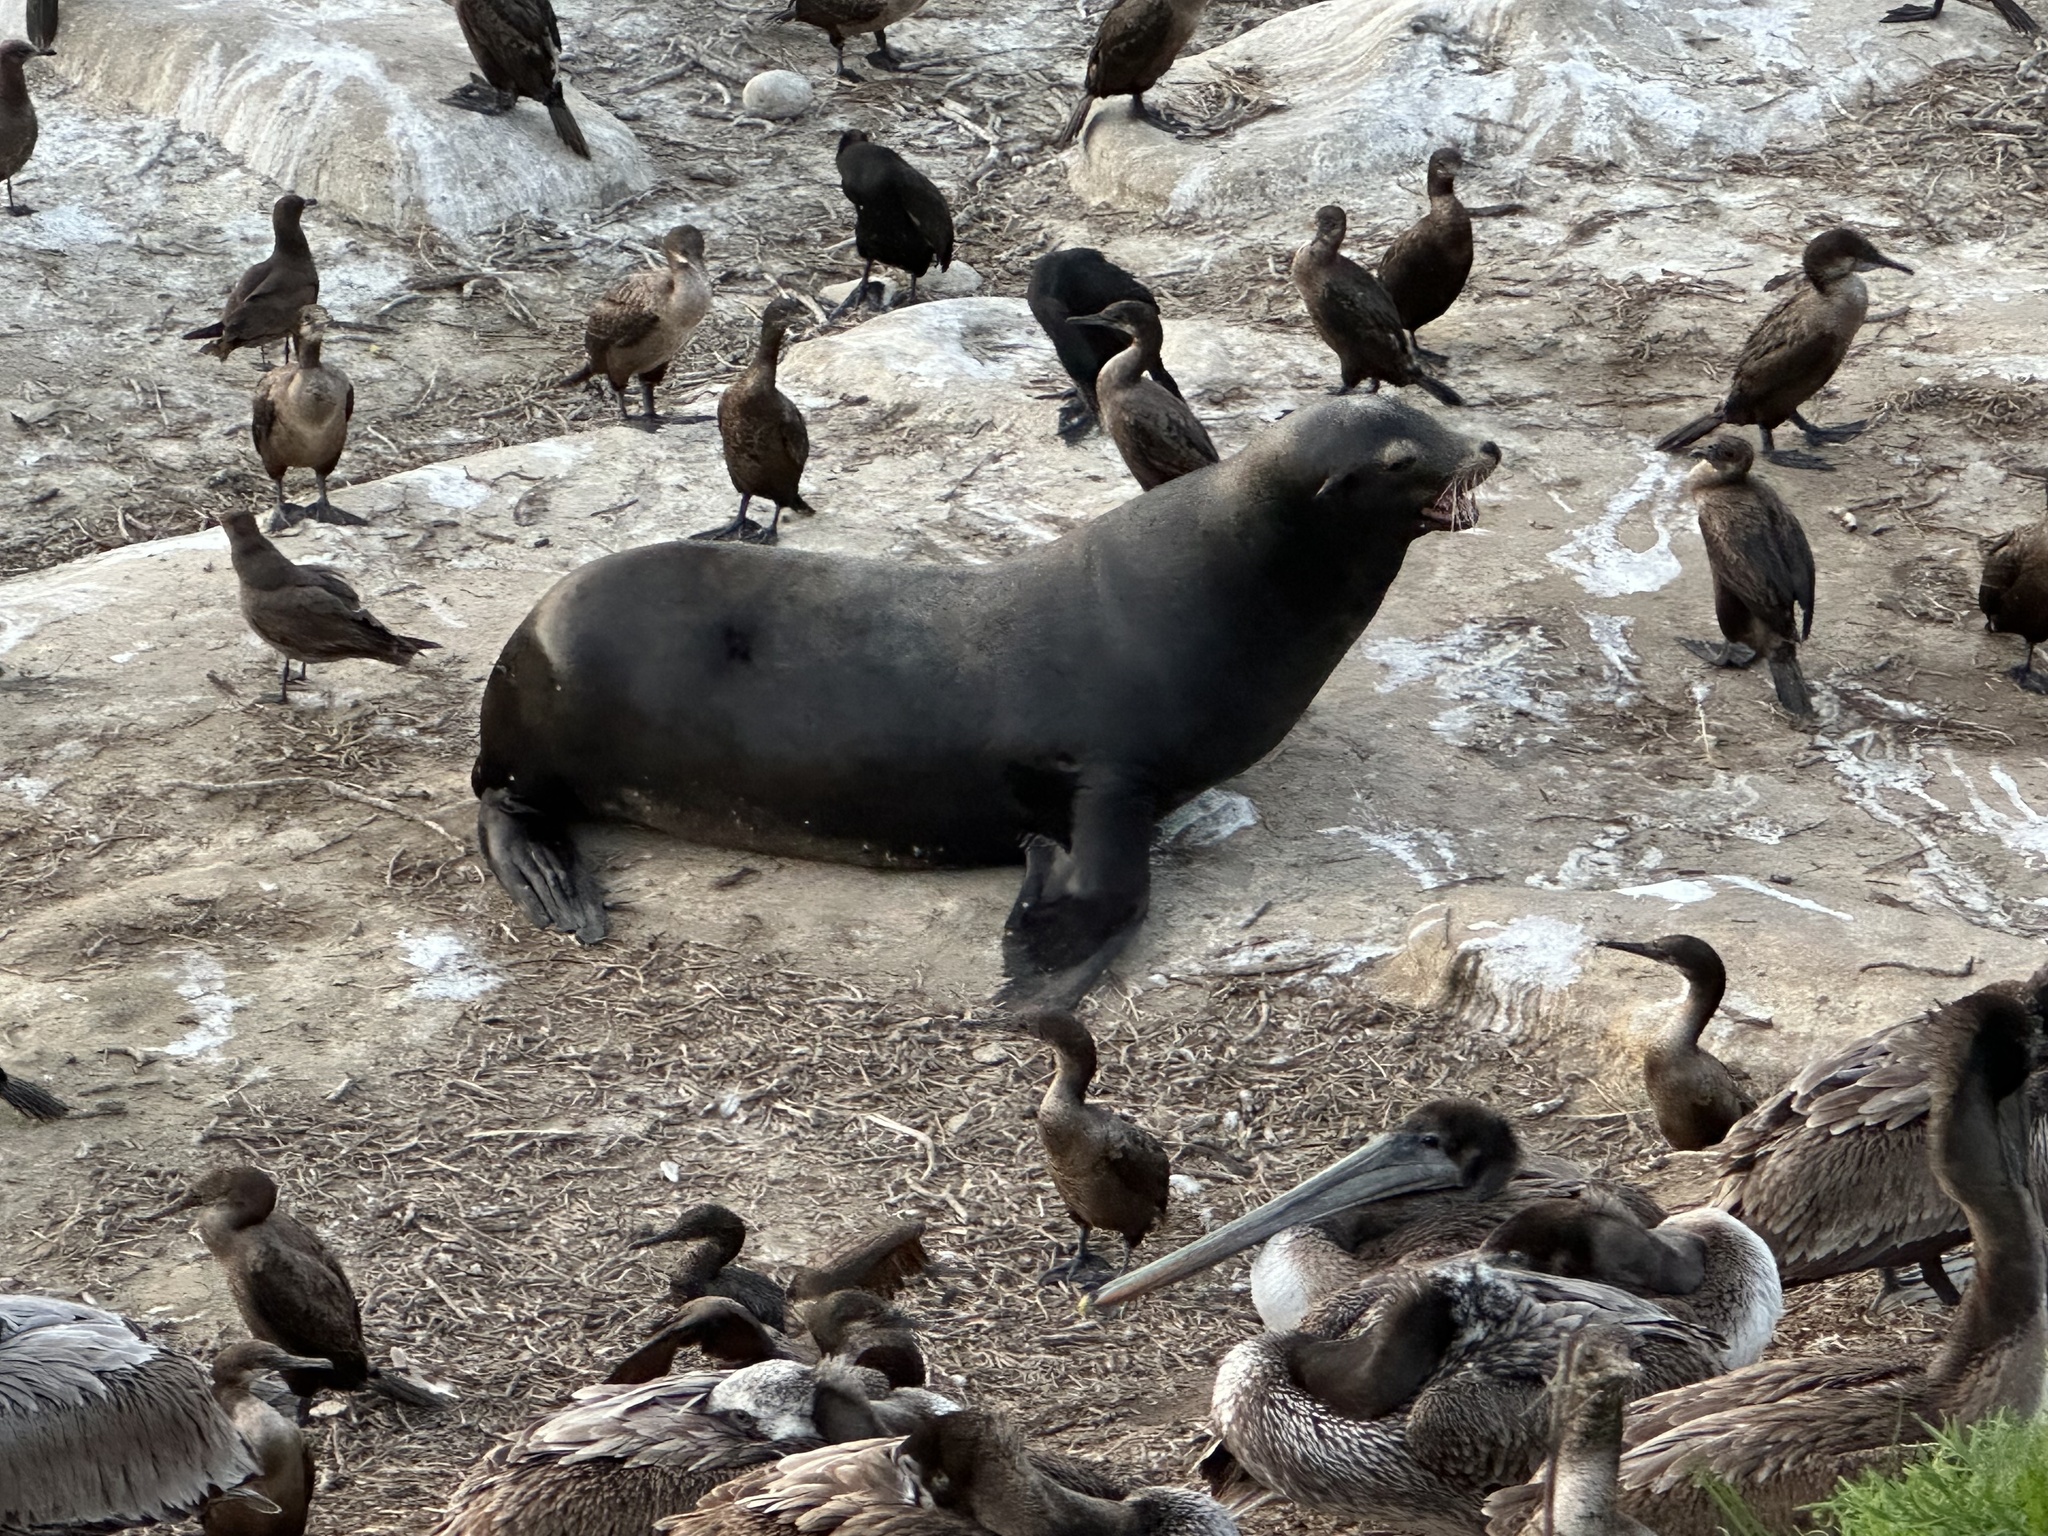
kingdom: Animalia
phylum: Chordata
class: Mammalia
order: Carnivora
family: Otariidae
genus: Zalophus
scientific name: Zalophus californianus
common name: California sea lion
